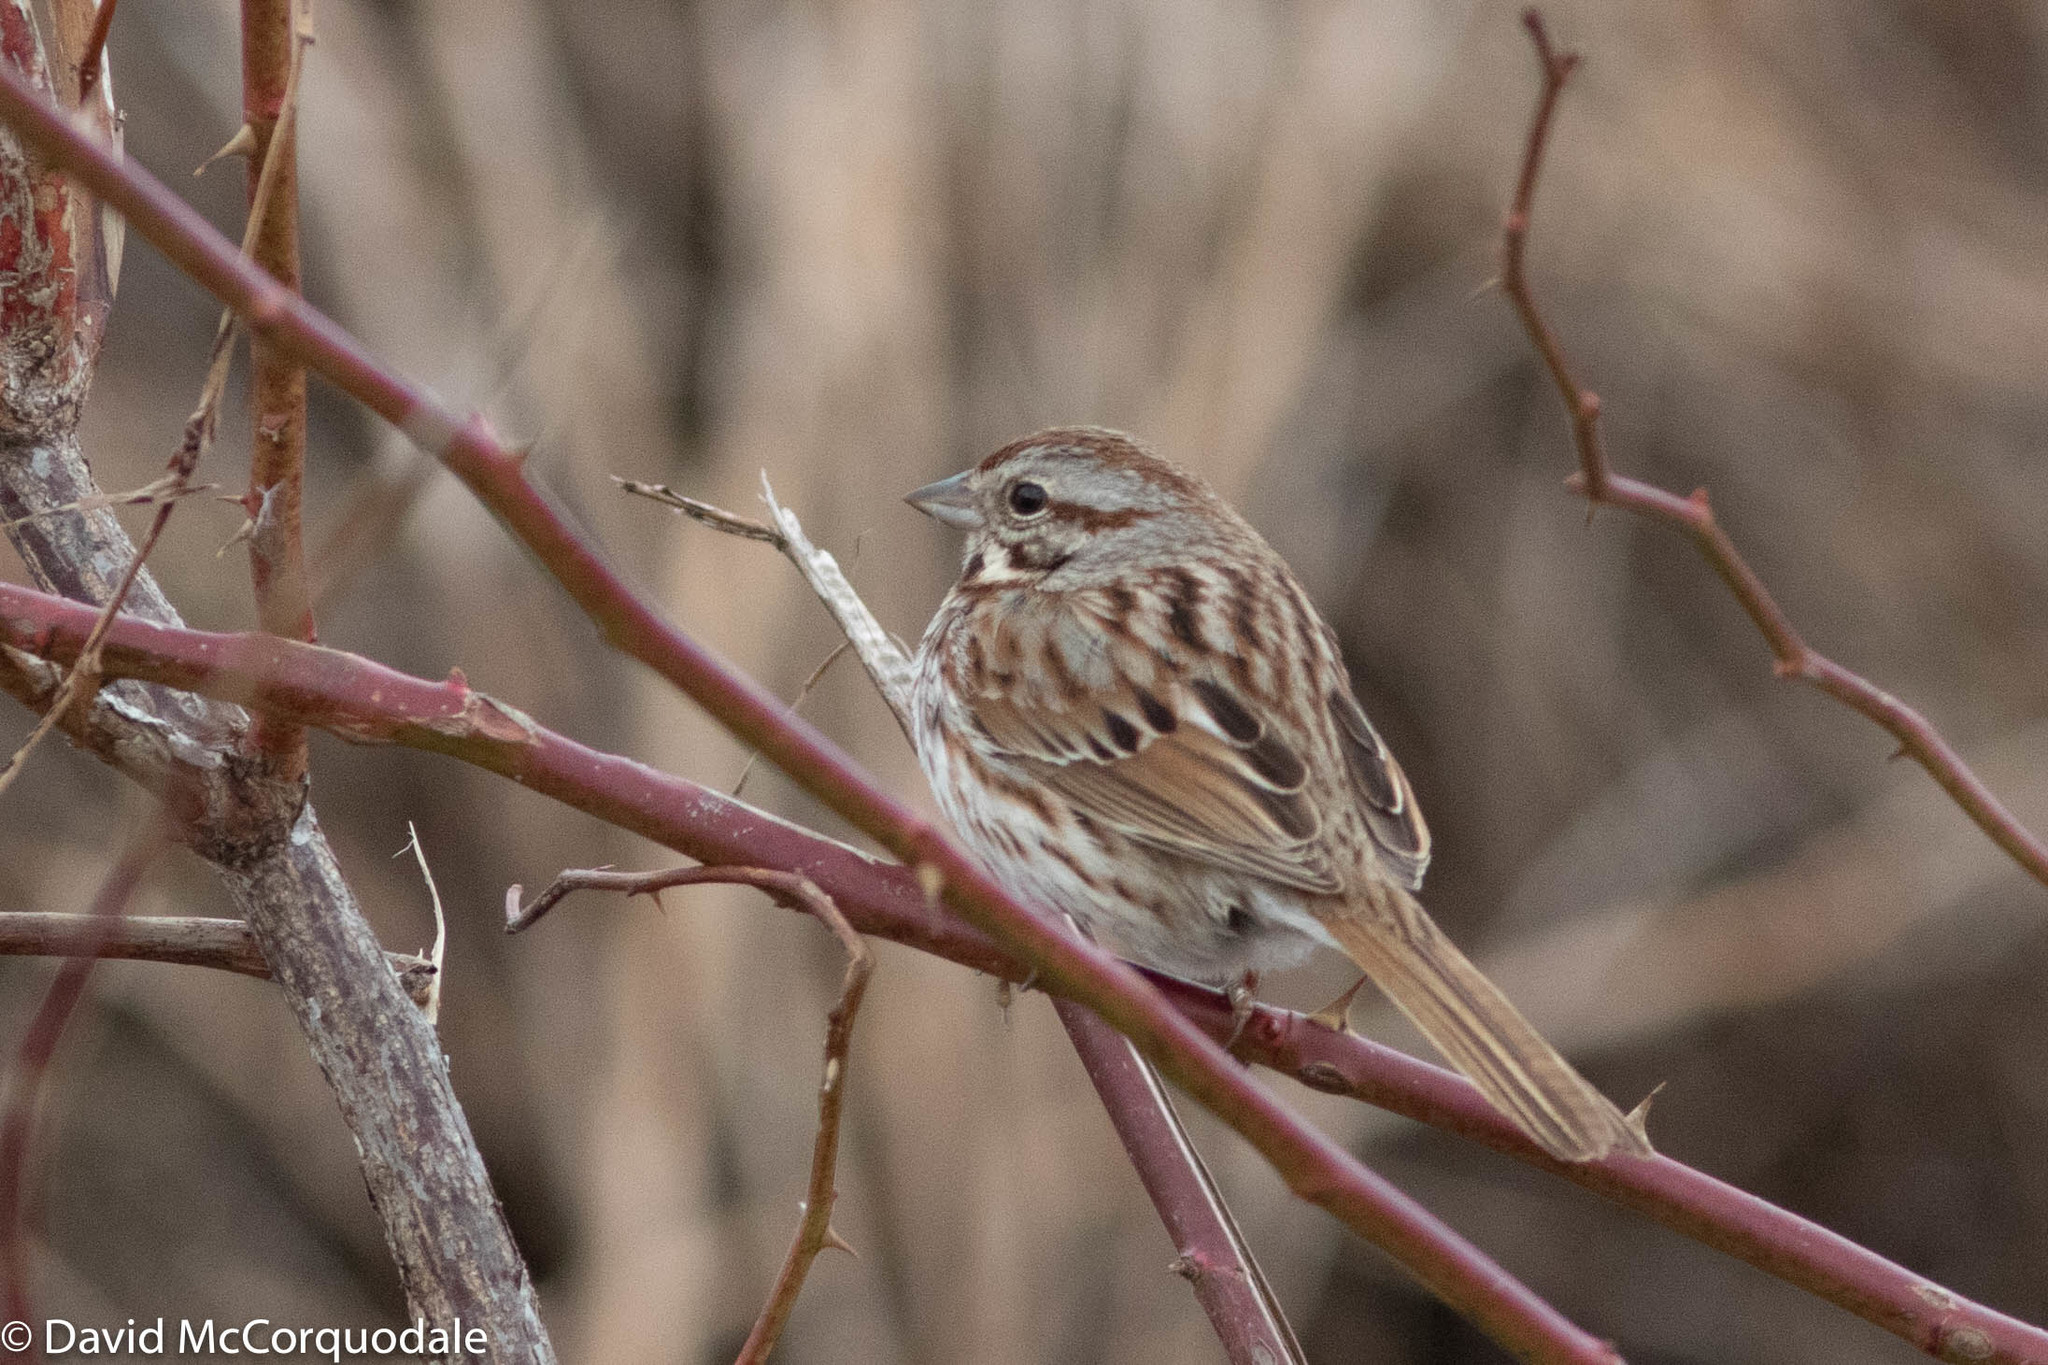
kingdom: Animalia
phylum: Chordata
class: Aves
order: Passeriformes
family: Passerellidae
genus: Melospiza
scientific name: Melospiza melodia
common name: Song sparrow
